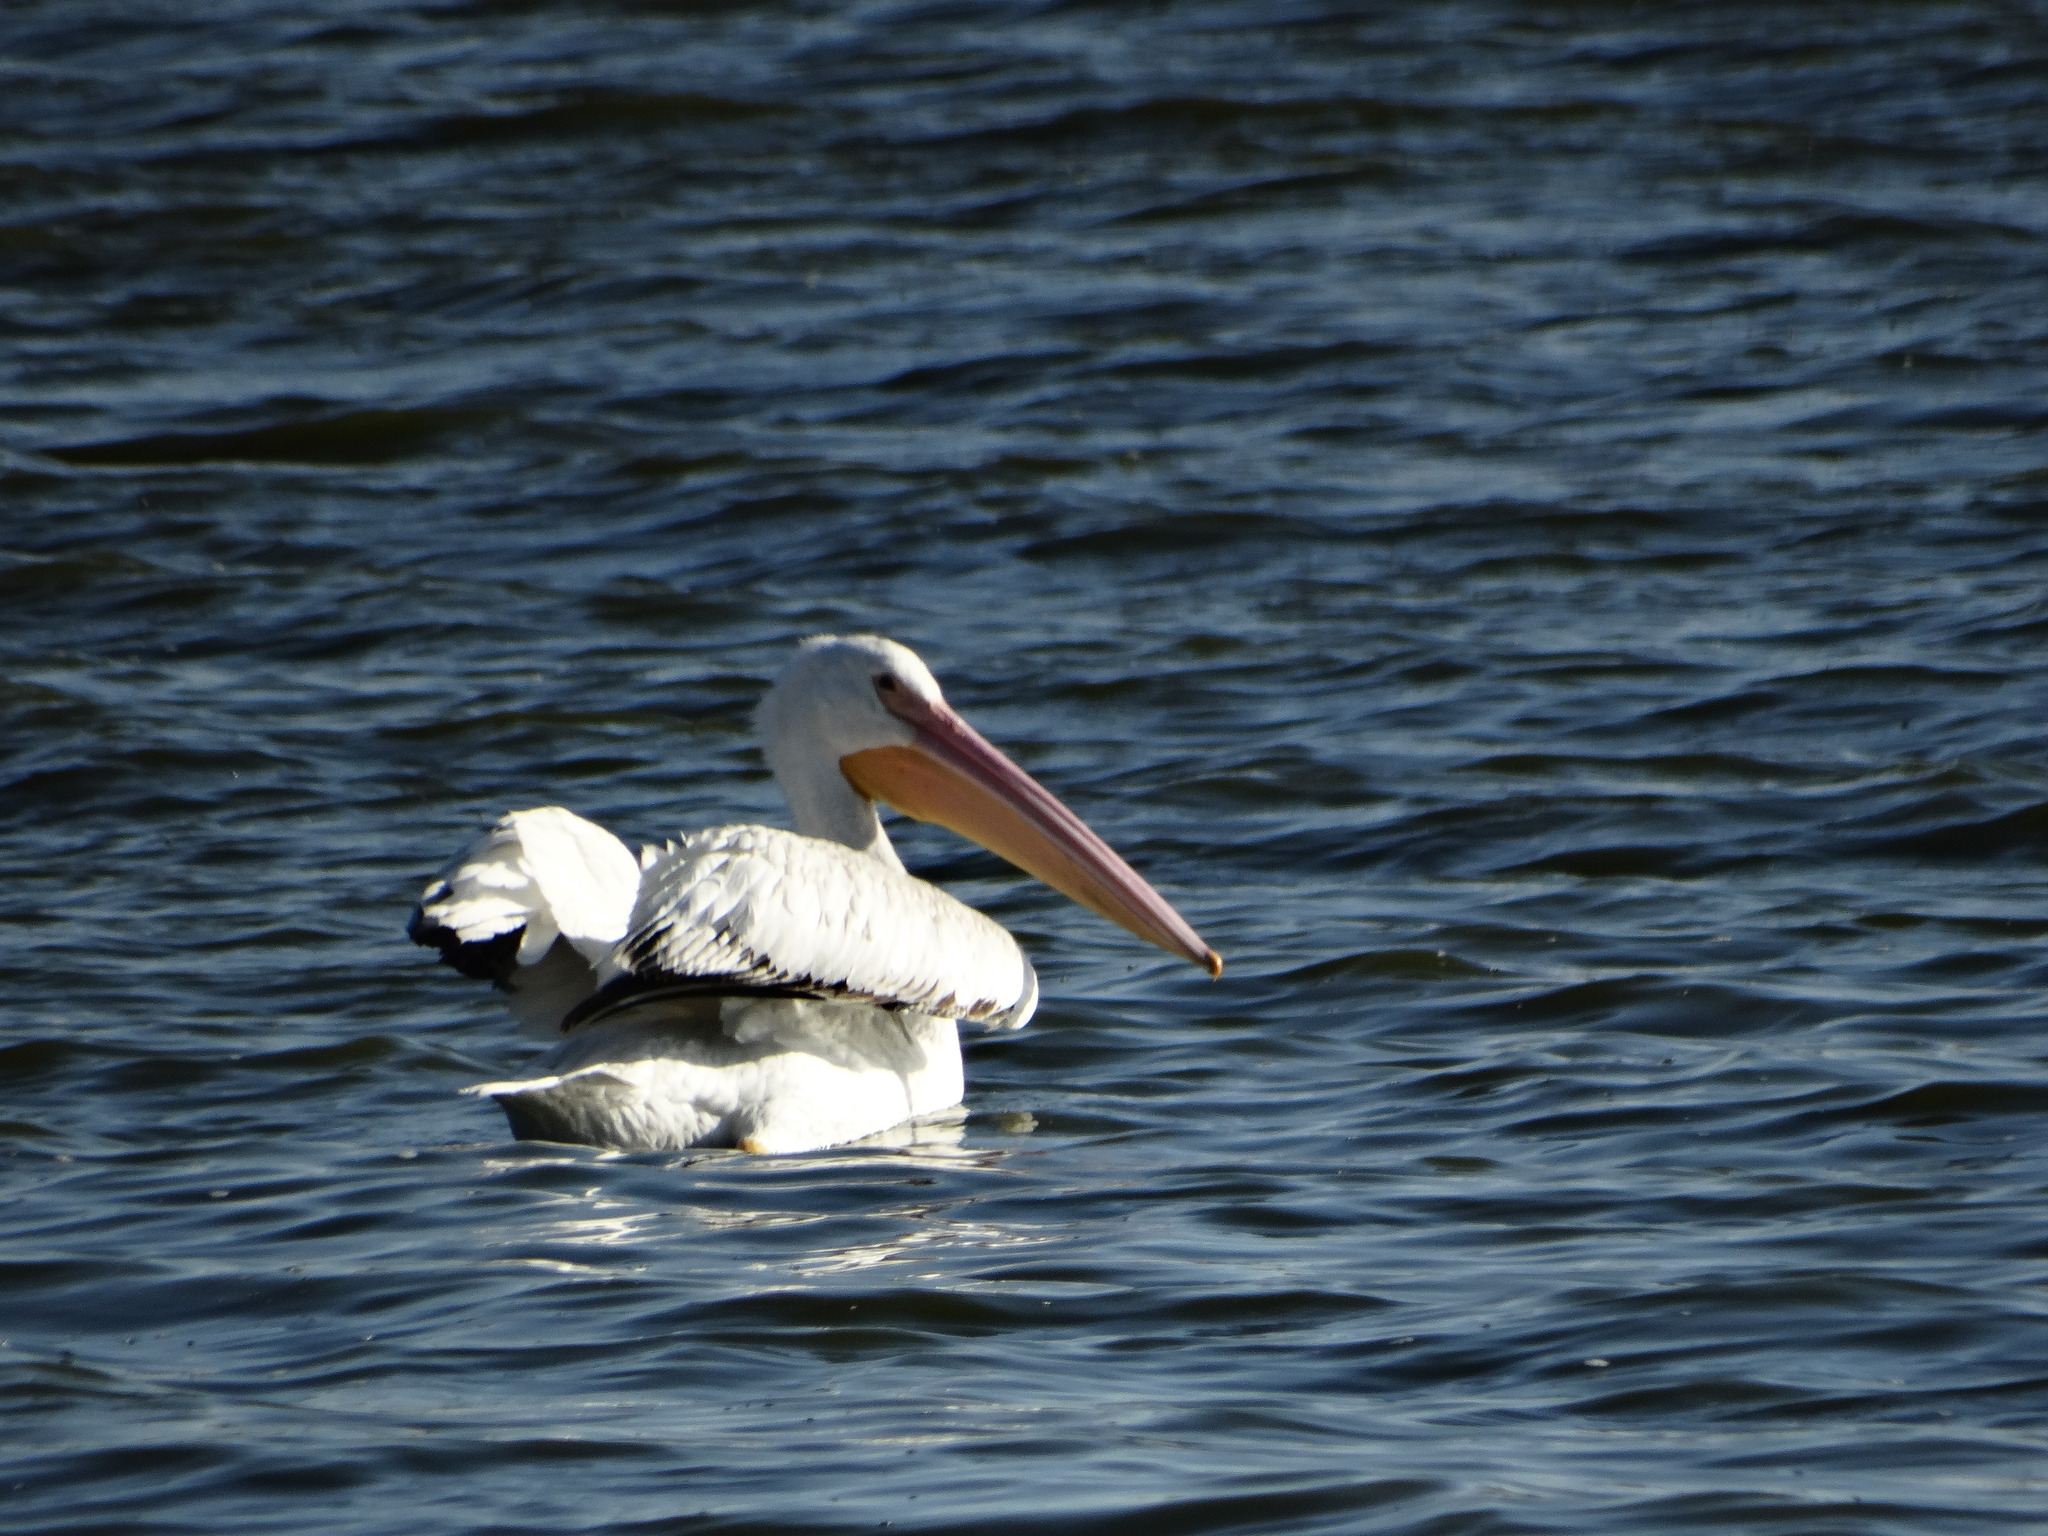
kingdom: Animalia
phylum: Chordata
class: Aves
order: Pelecaniformes
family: Pelecanidae
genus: Pelecanus
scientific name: Pelecanus erythrorhynchos
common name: American white pelican
